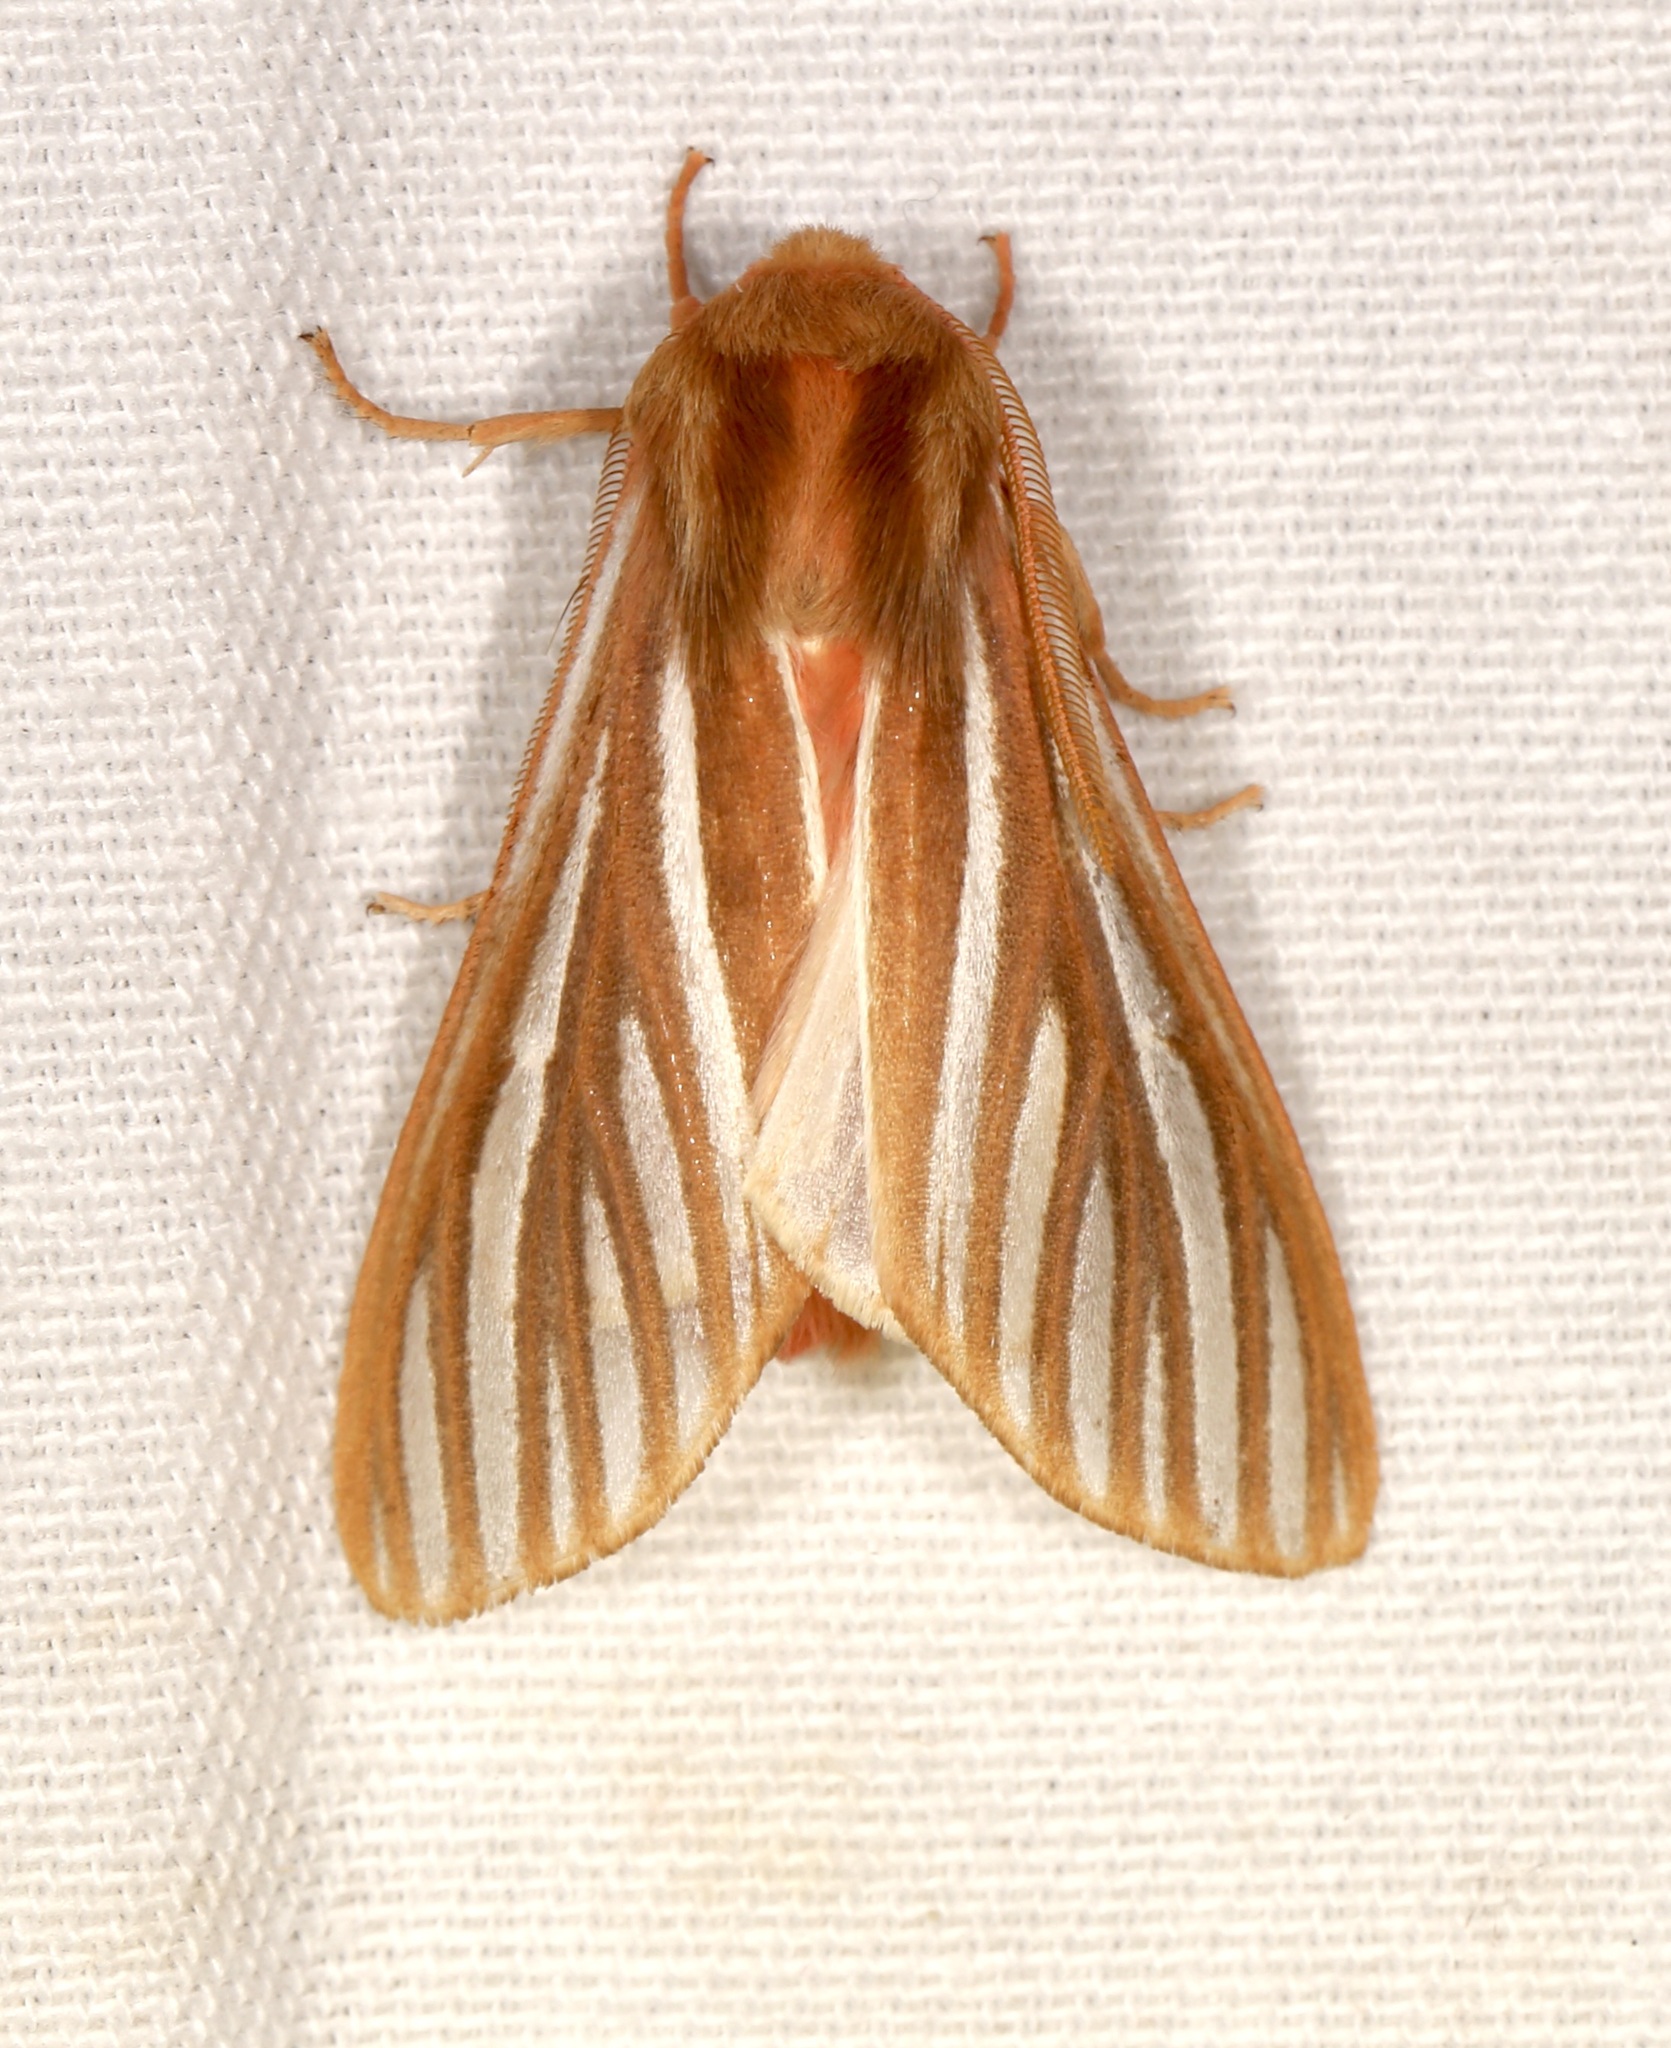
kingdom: Animalia
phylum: Arthropoda
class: Insecta
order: Lepidoptera
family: Erebidae
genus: Hemihyalea
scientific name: Hemihyalea ambigua
